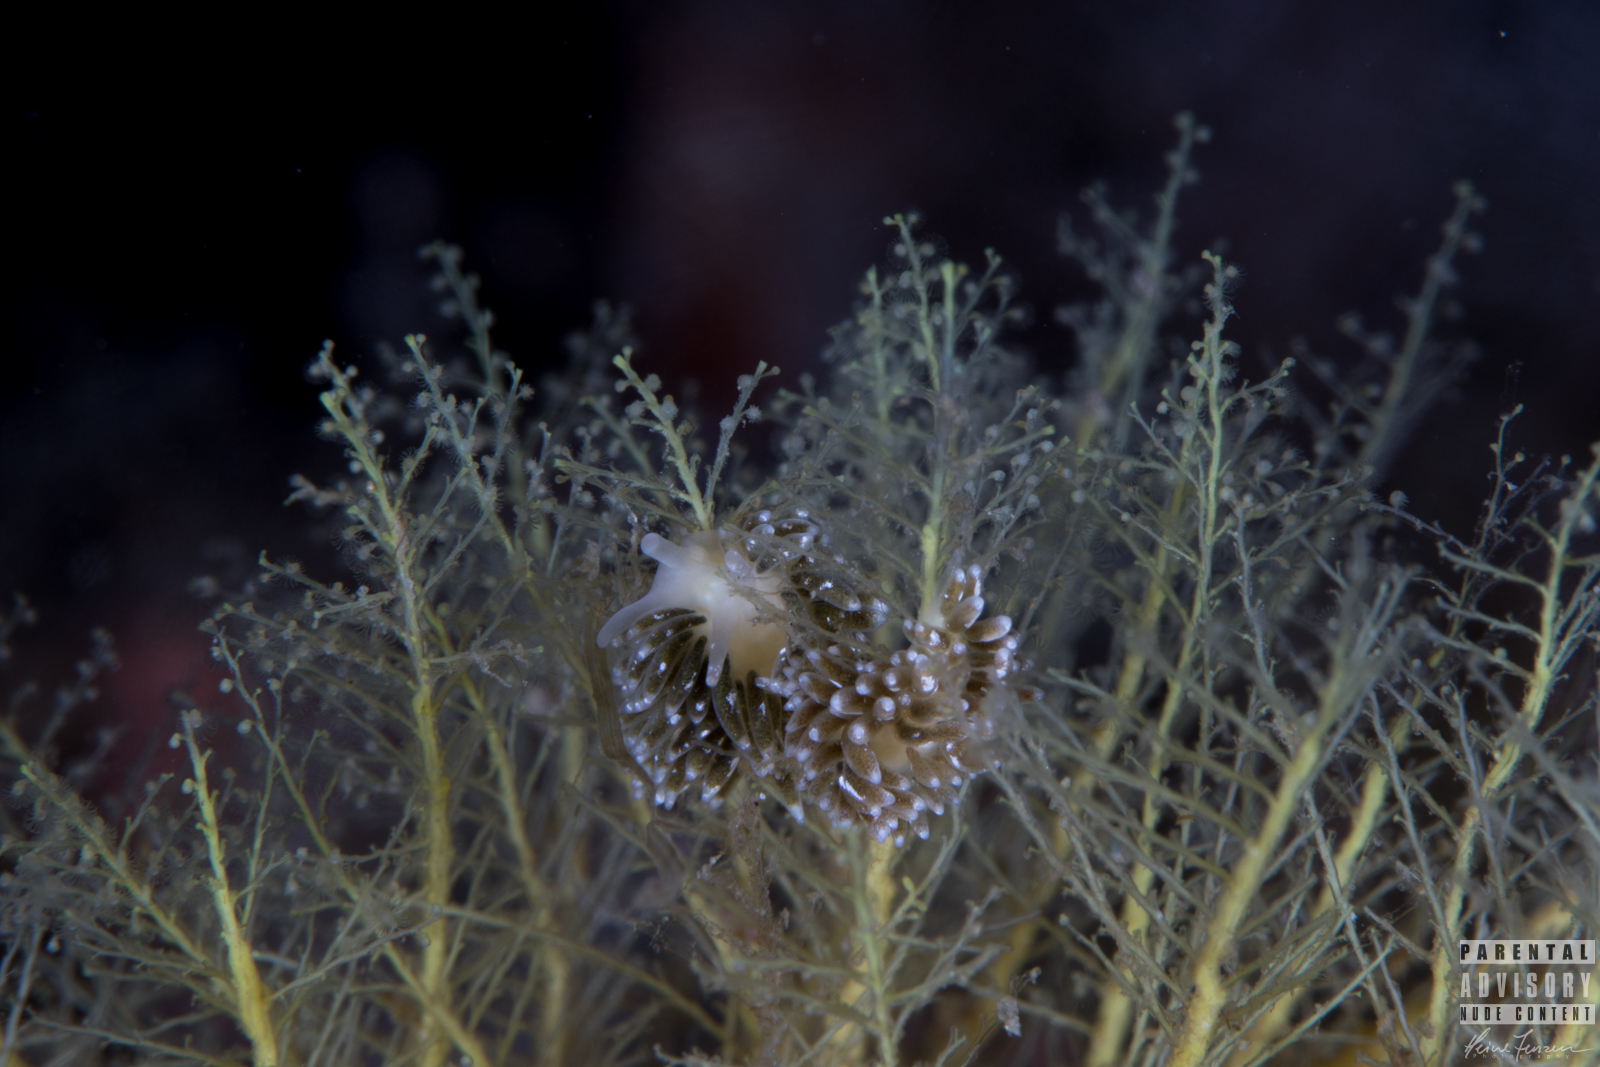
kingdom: Animalia
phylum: Mollusca
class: Gastropoda
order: Nudibranchia
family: Trinchesiidae
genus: Zelentia
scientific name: Zelentia pustulata
